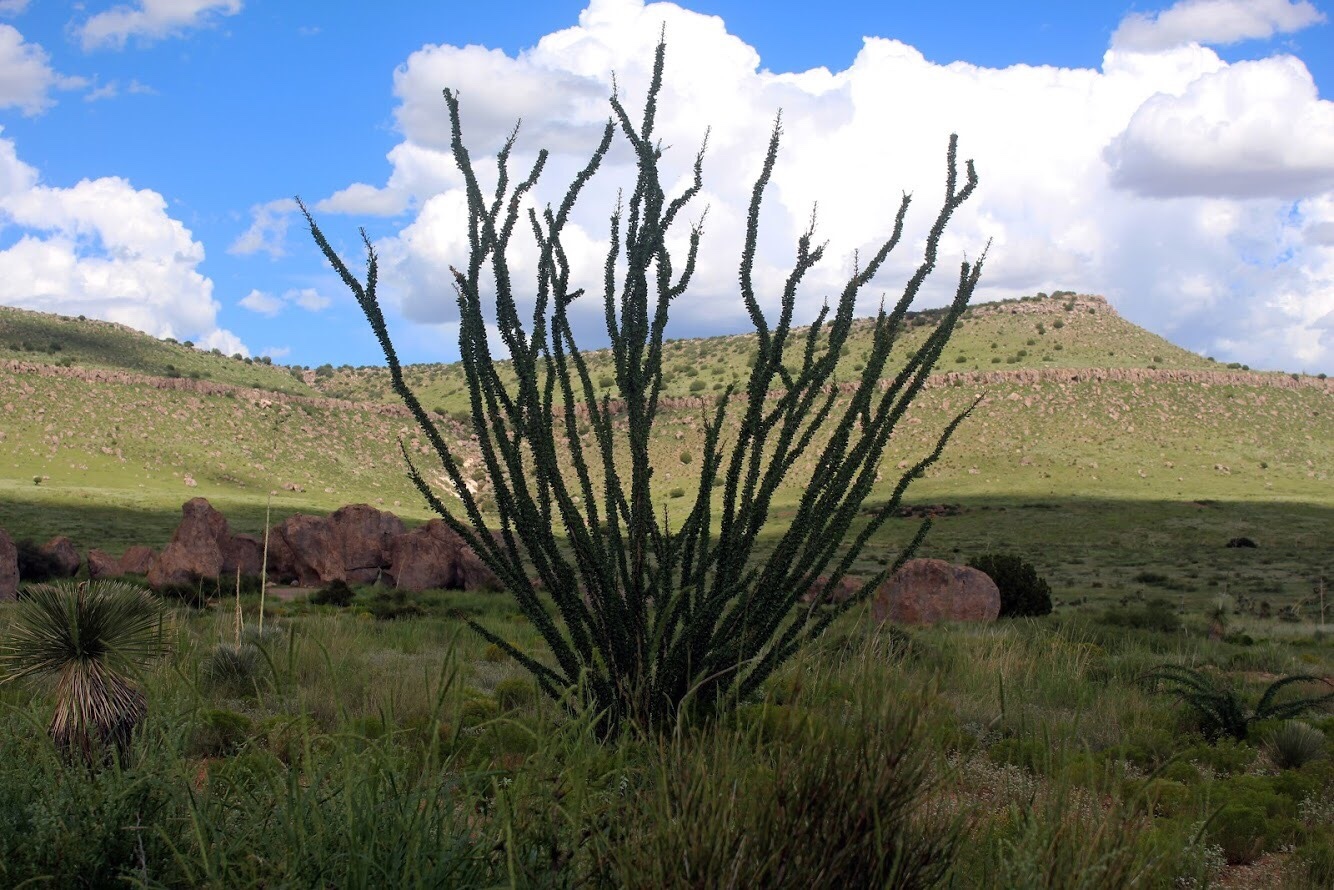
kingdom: Plantae
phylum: Tracheophyta
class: Magnoliopsida
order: Ericales
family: Fouquieriaceae
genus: Fouquieria
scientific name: Fouquieria splendens
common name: Vine-cactus
